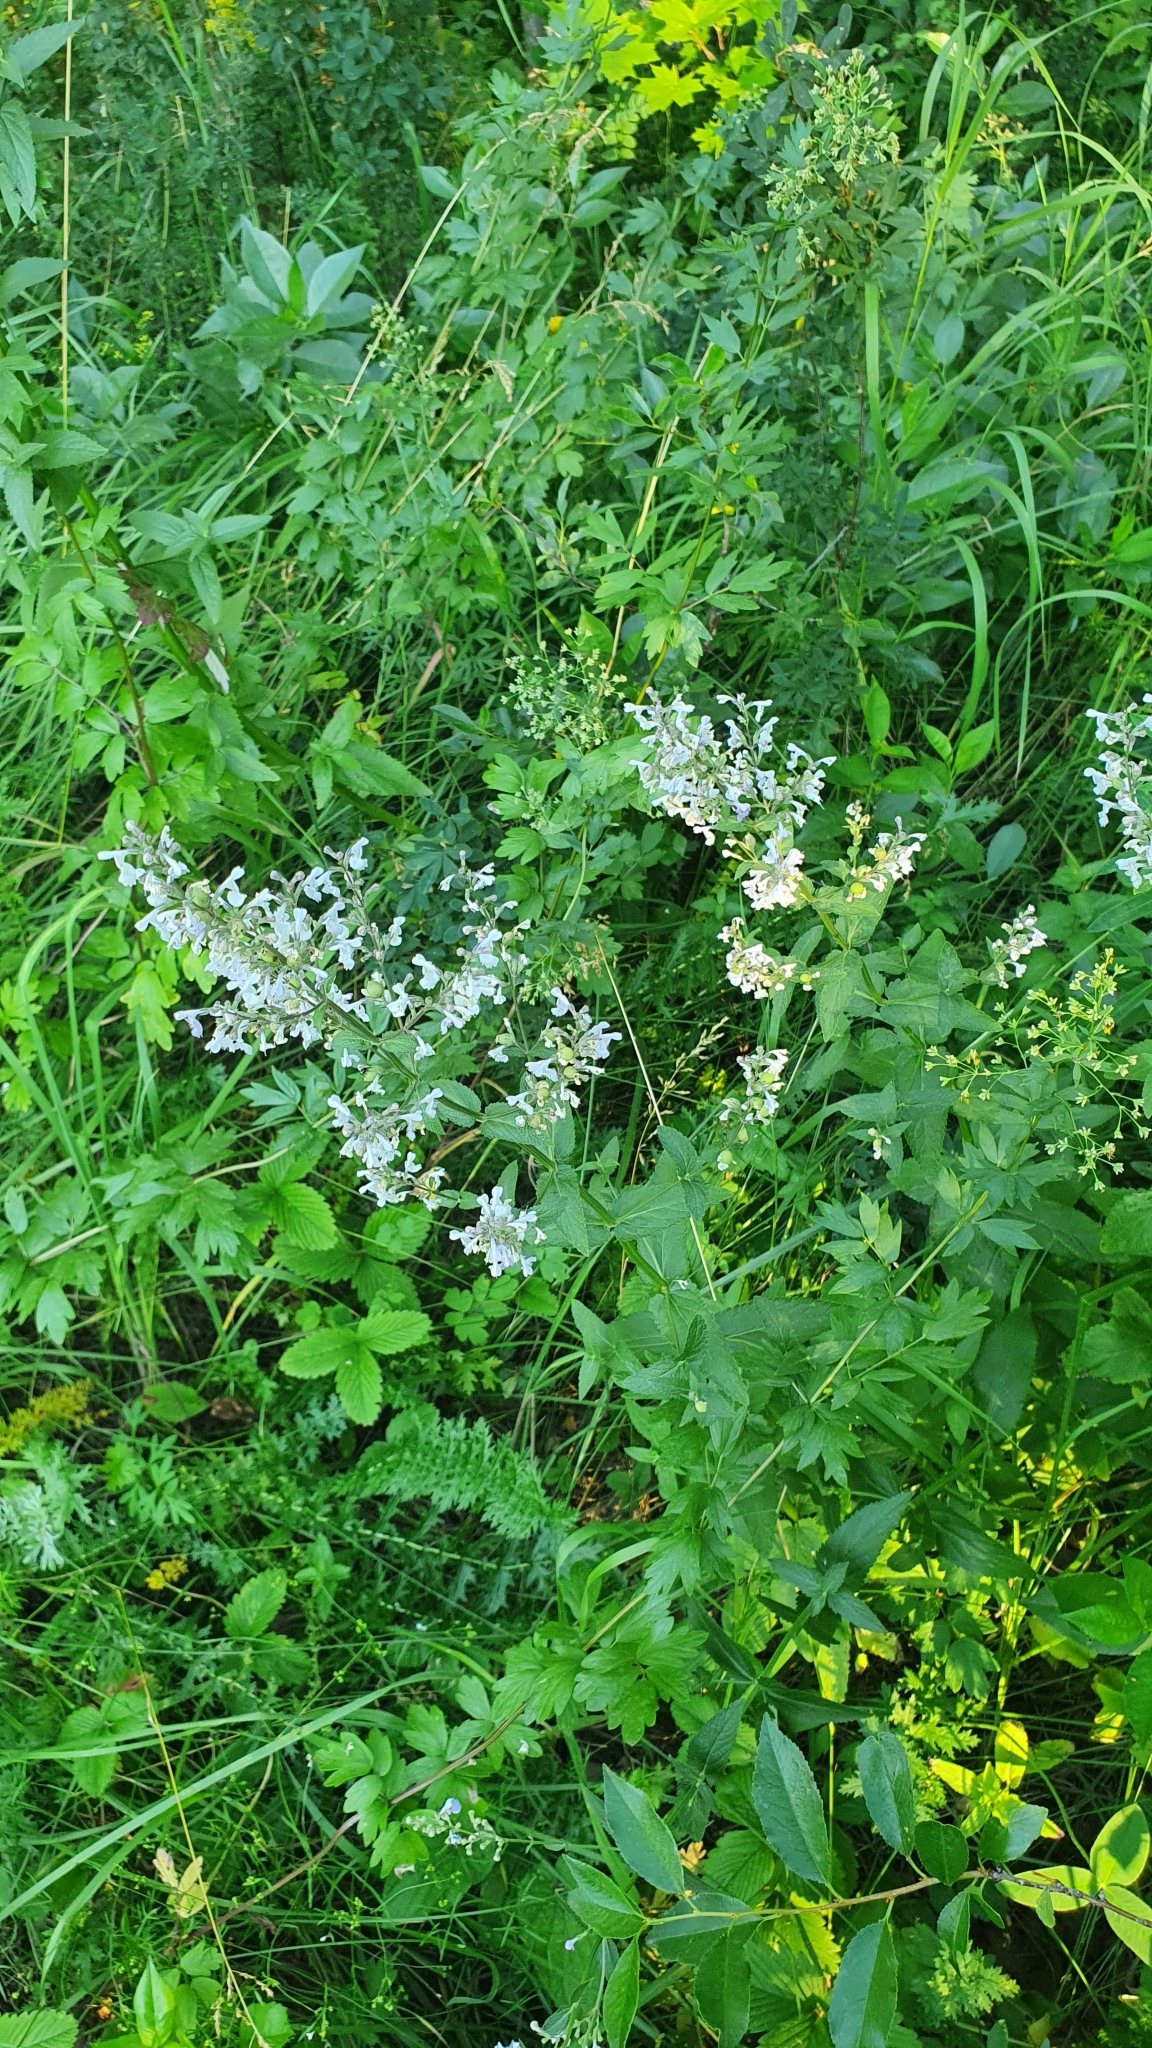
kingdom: Plantae
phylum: Tracheophyta
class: Magnoliopsida
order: Lamiales
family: Lamiaceae
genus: Nepeta
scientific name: Nepeta nuda
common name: Hairless catmint
